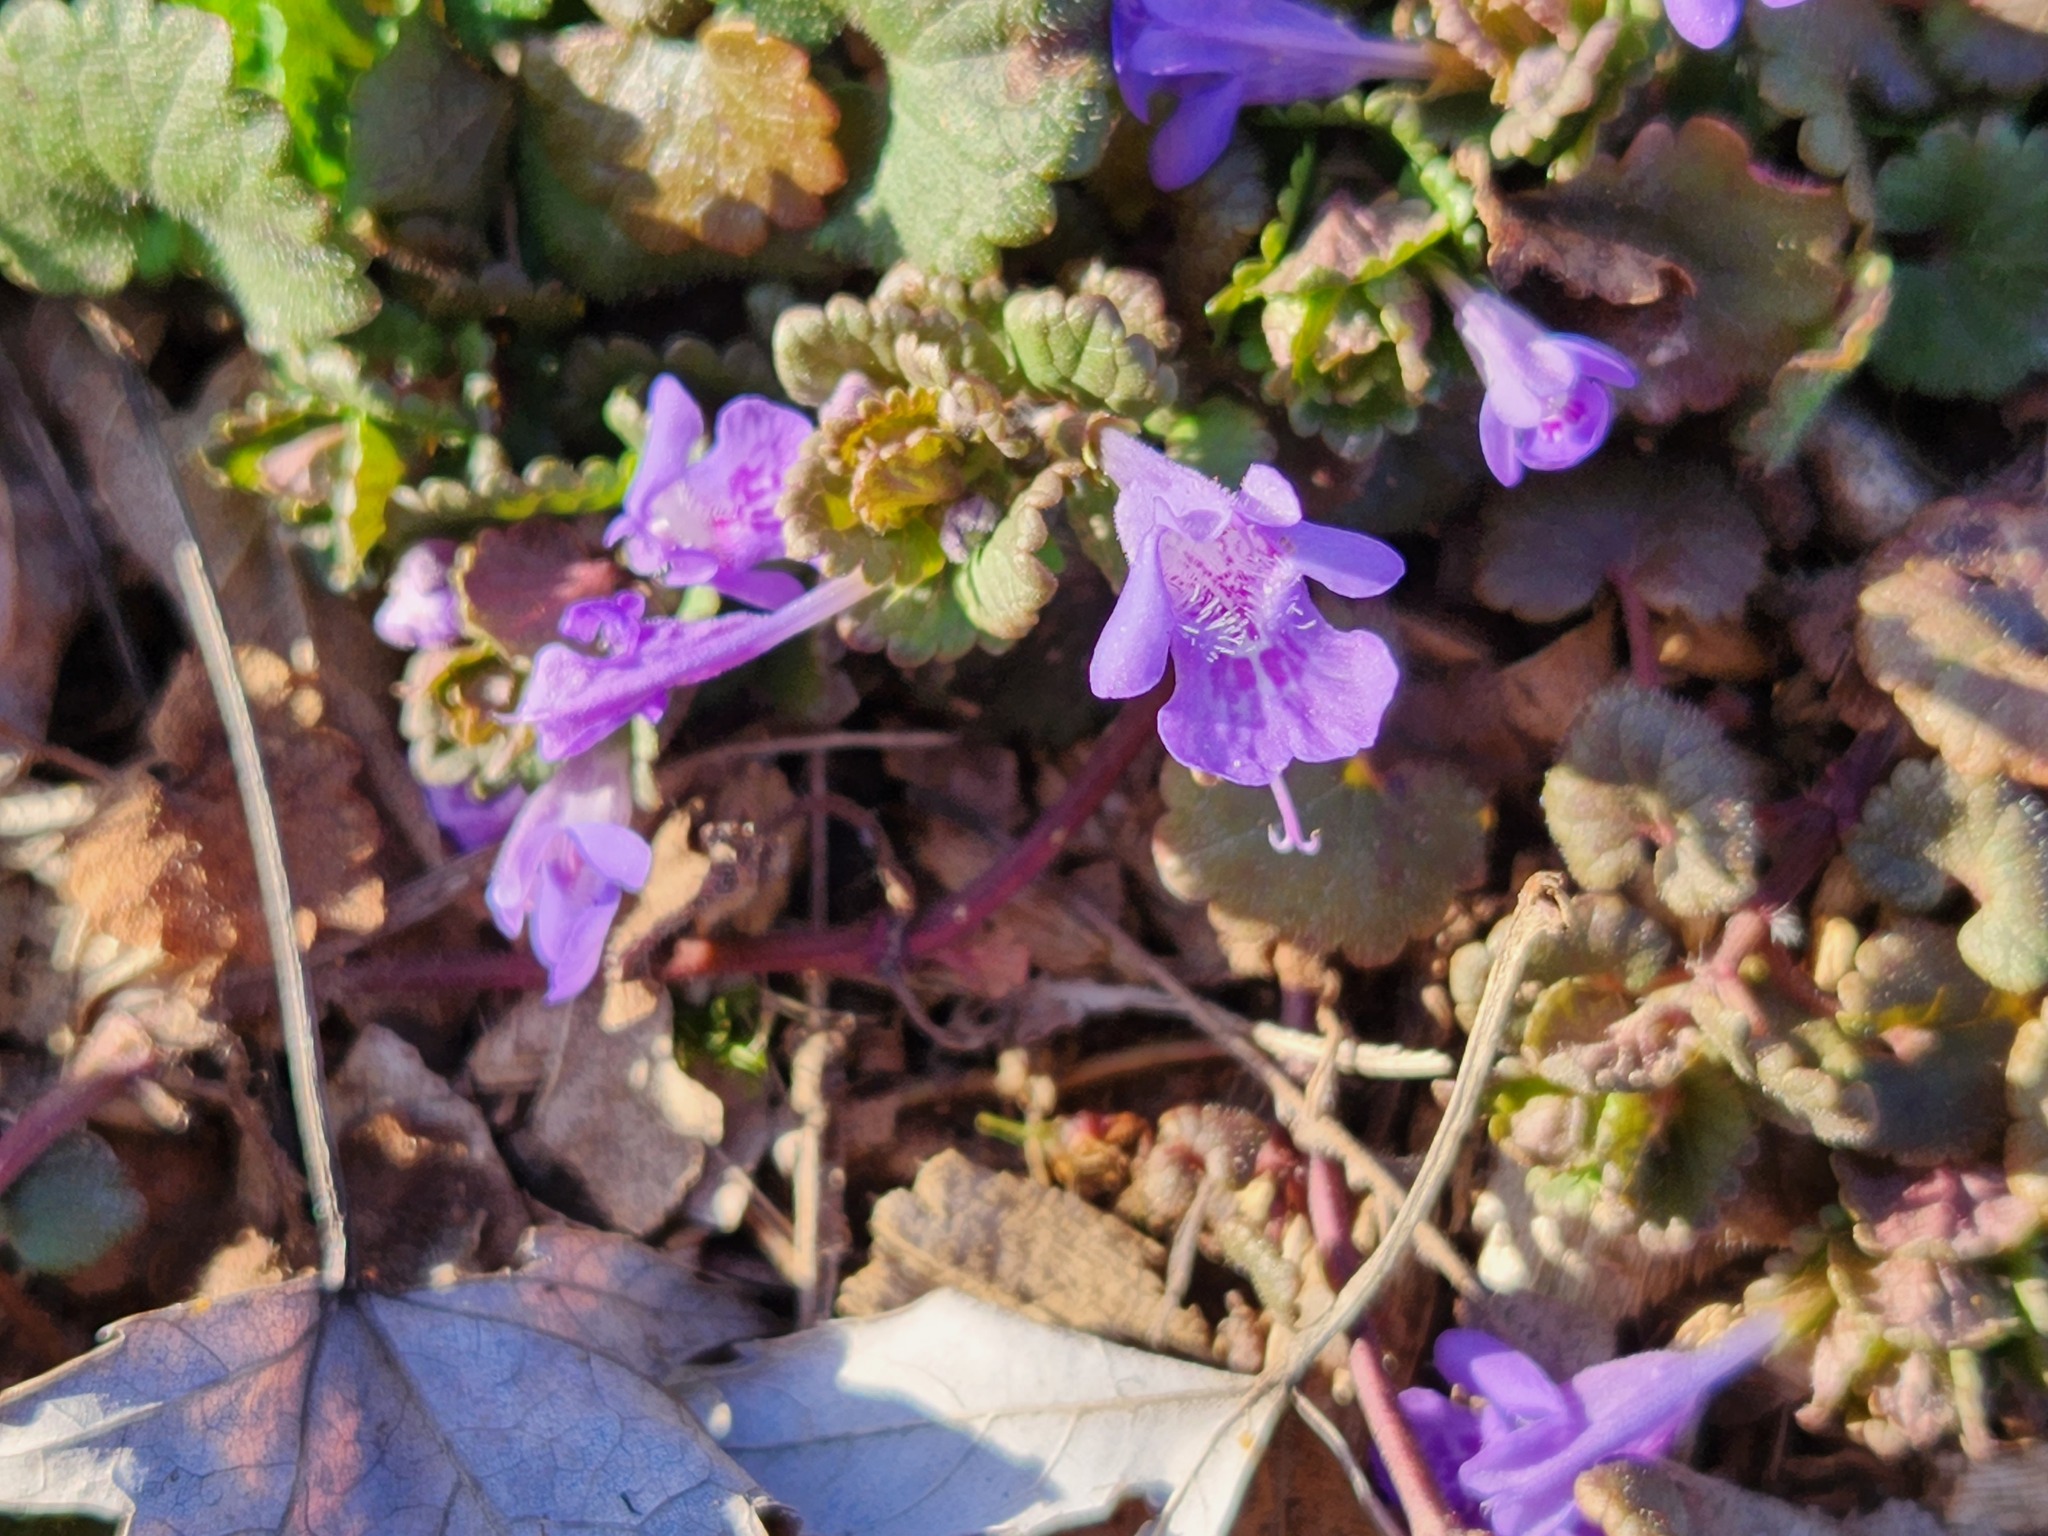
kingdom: Plantae
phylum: Tracheophyta
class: Magnoliopsida
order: Lamiales
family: Lamiaceae
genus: Glechoma
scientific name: Glechoma hederacea
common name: Ground ivy
